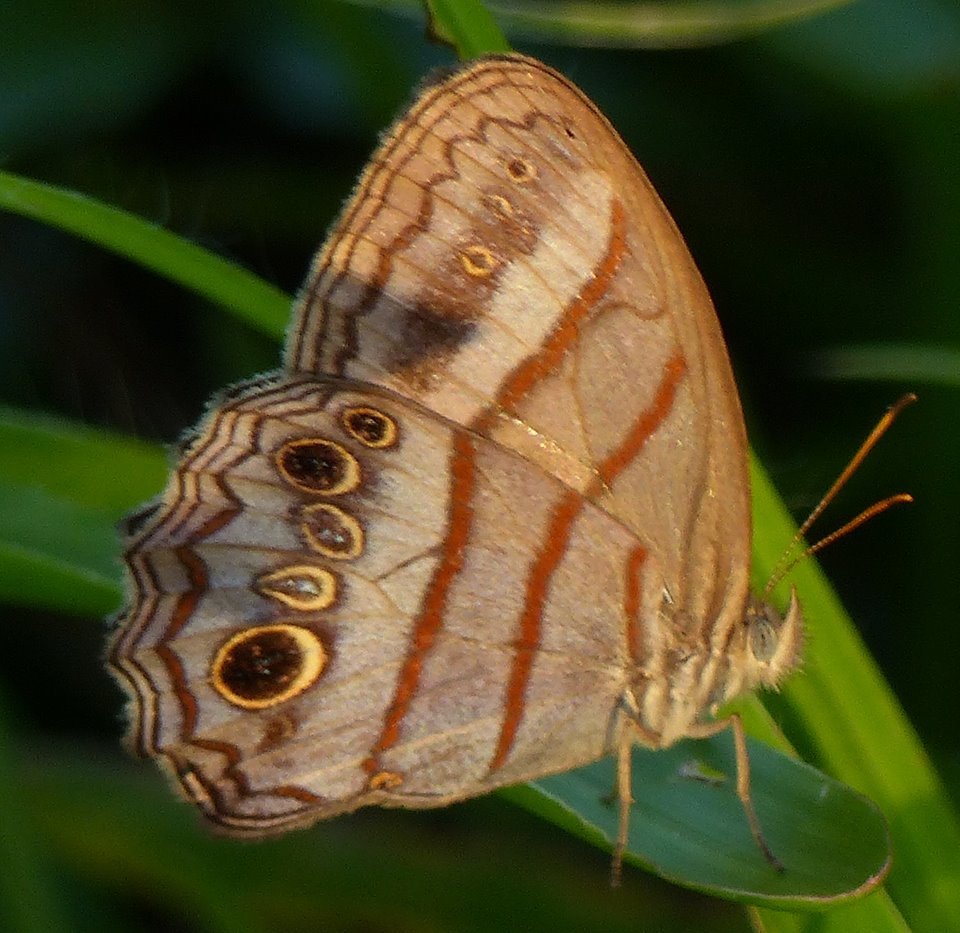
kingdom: Animalia
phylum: Arthropoda
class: Insecta
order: Lepidoptera
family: Nymphalidae
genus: Magneuptychia
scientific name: Magneuptychia libye
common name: Blue-gray satyr
